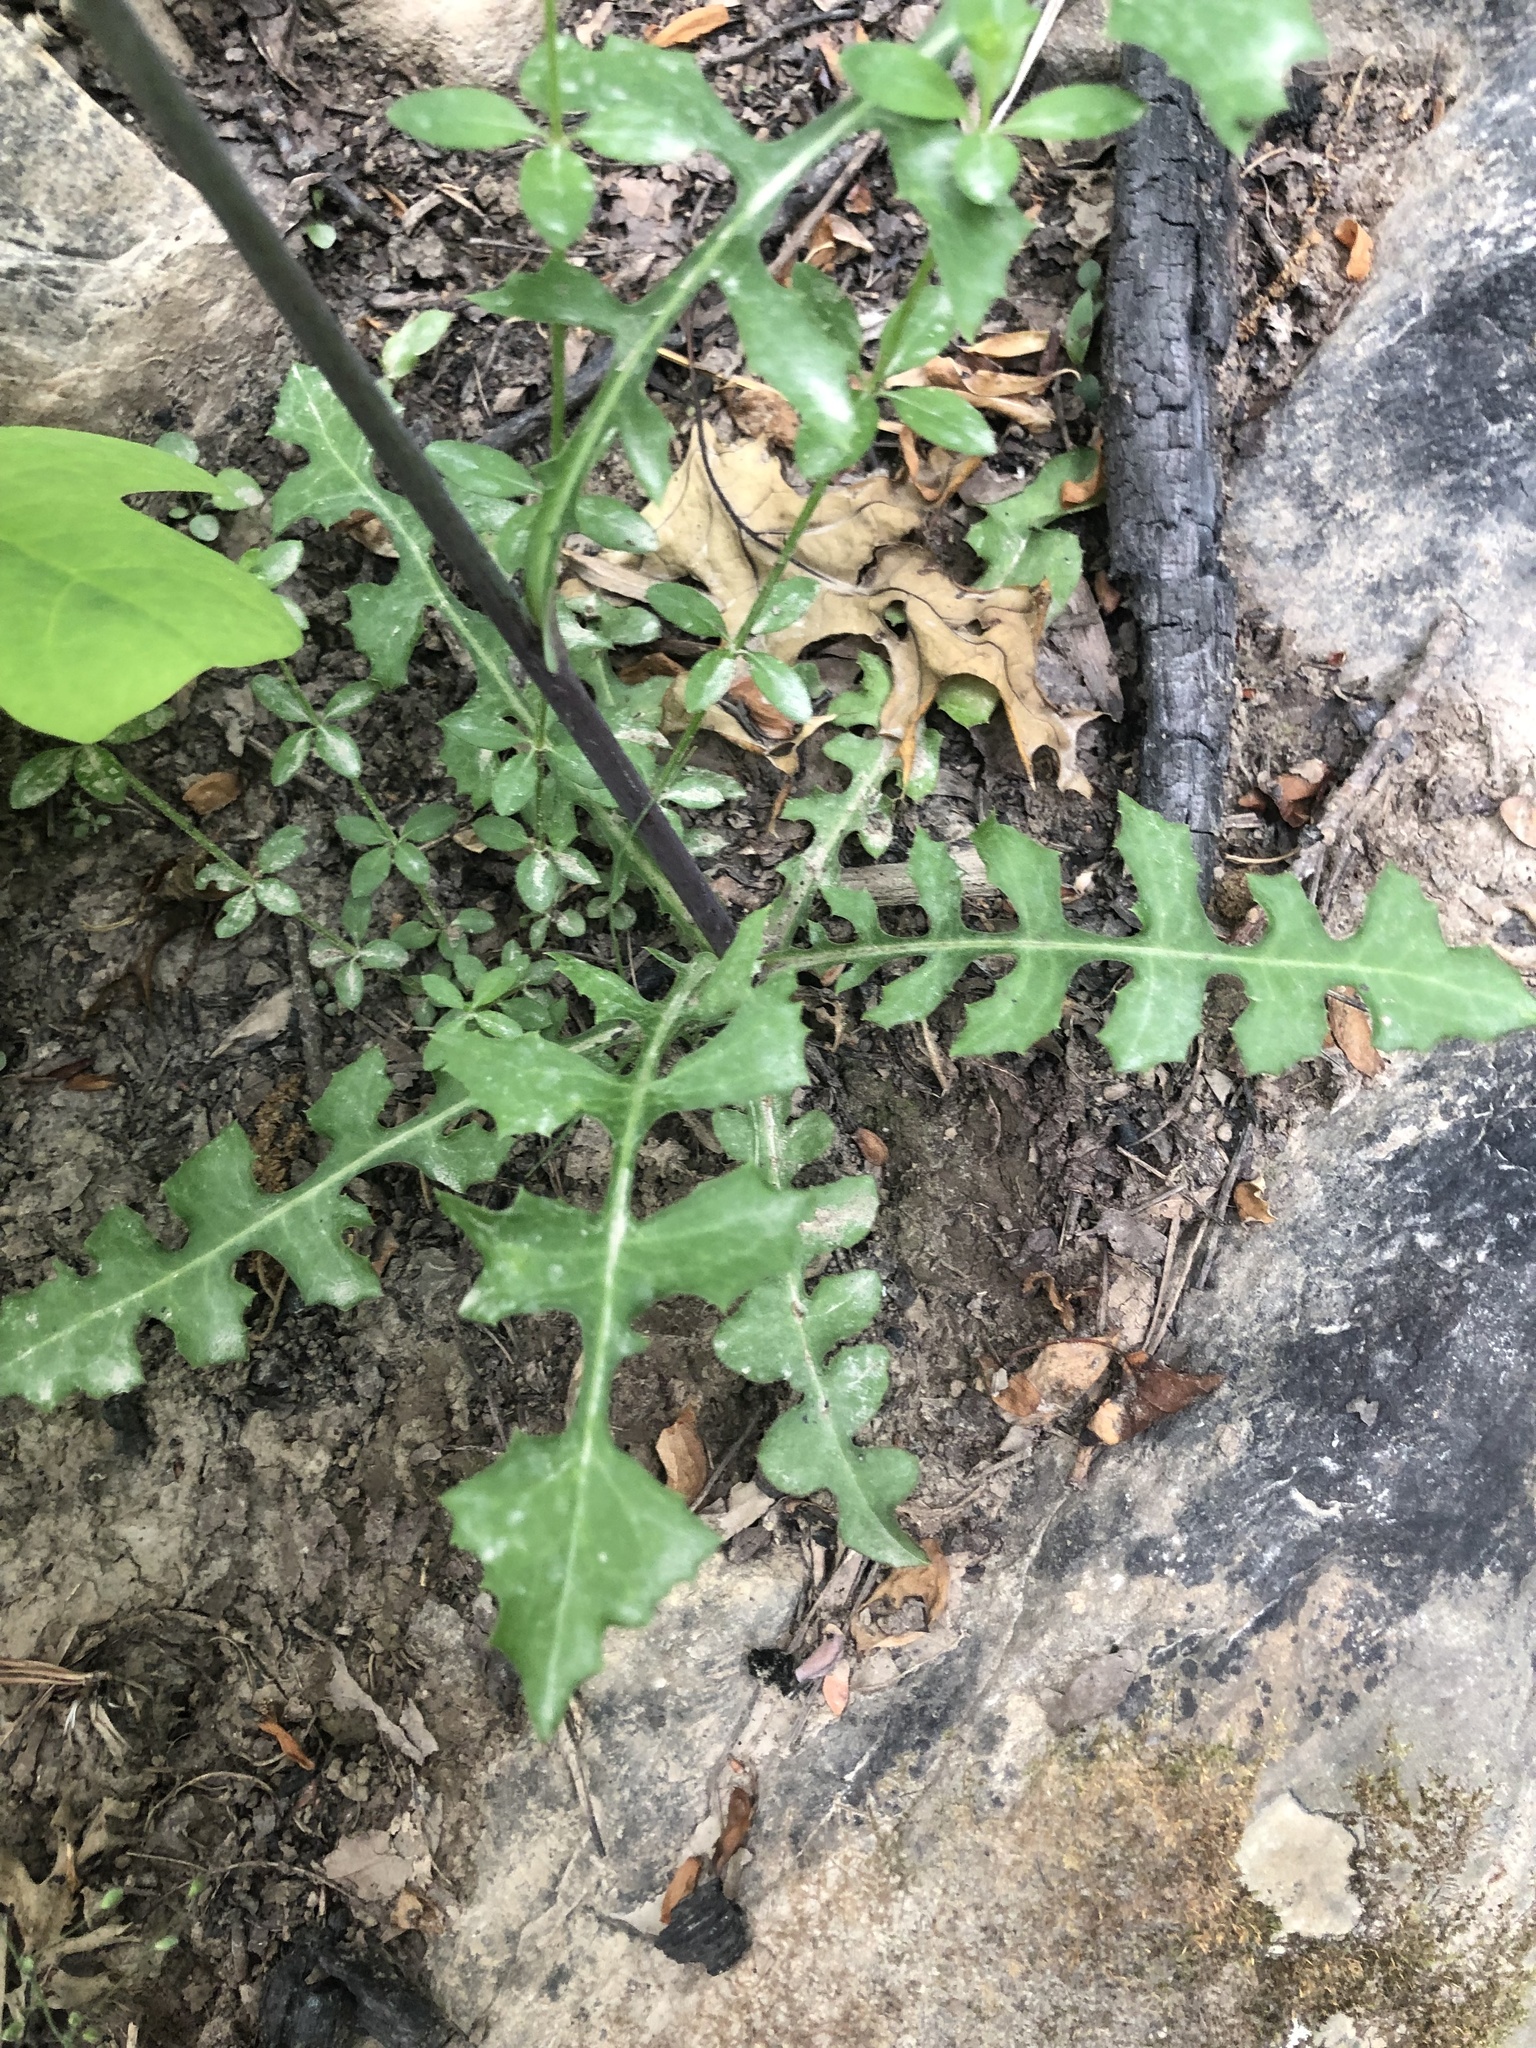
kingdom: Plantae
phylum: Tracheophyta
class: Magnoliopsida
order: Asterales
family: Asteraceae
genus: Lactuca
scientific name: Lactuca hirsuta
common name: Hairy lettuce
